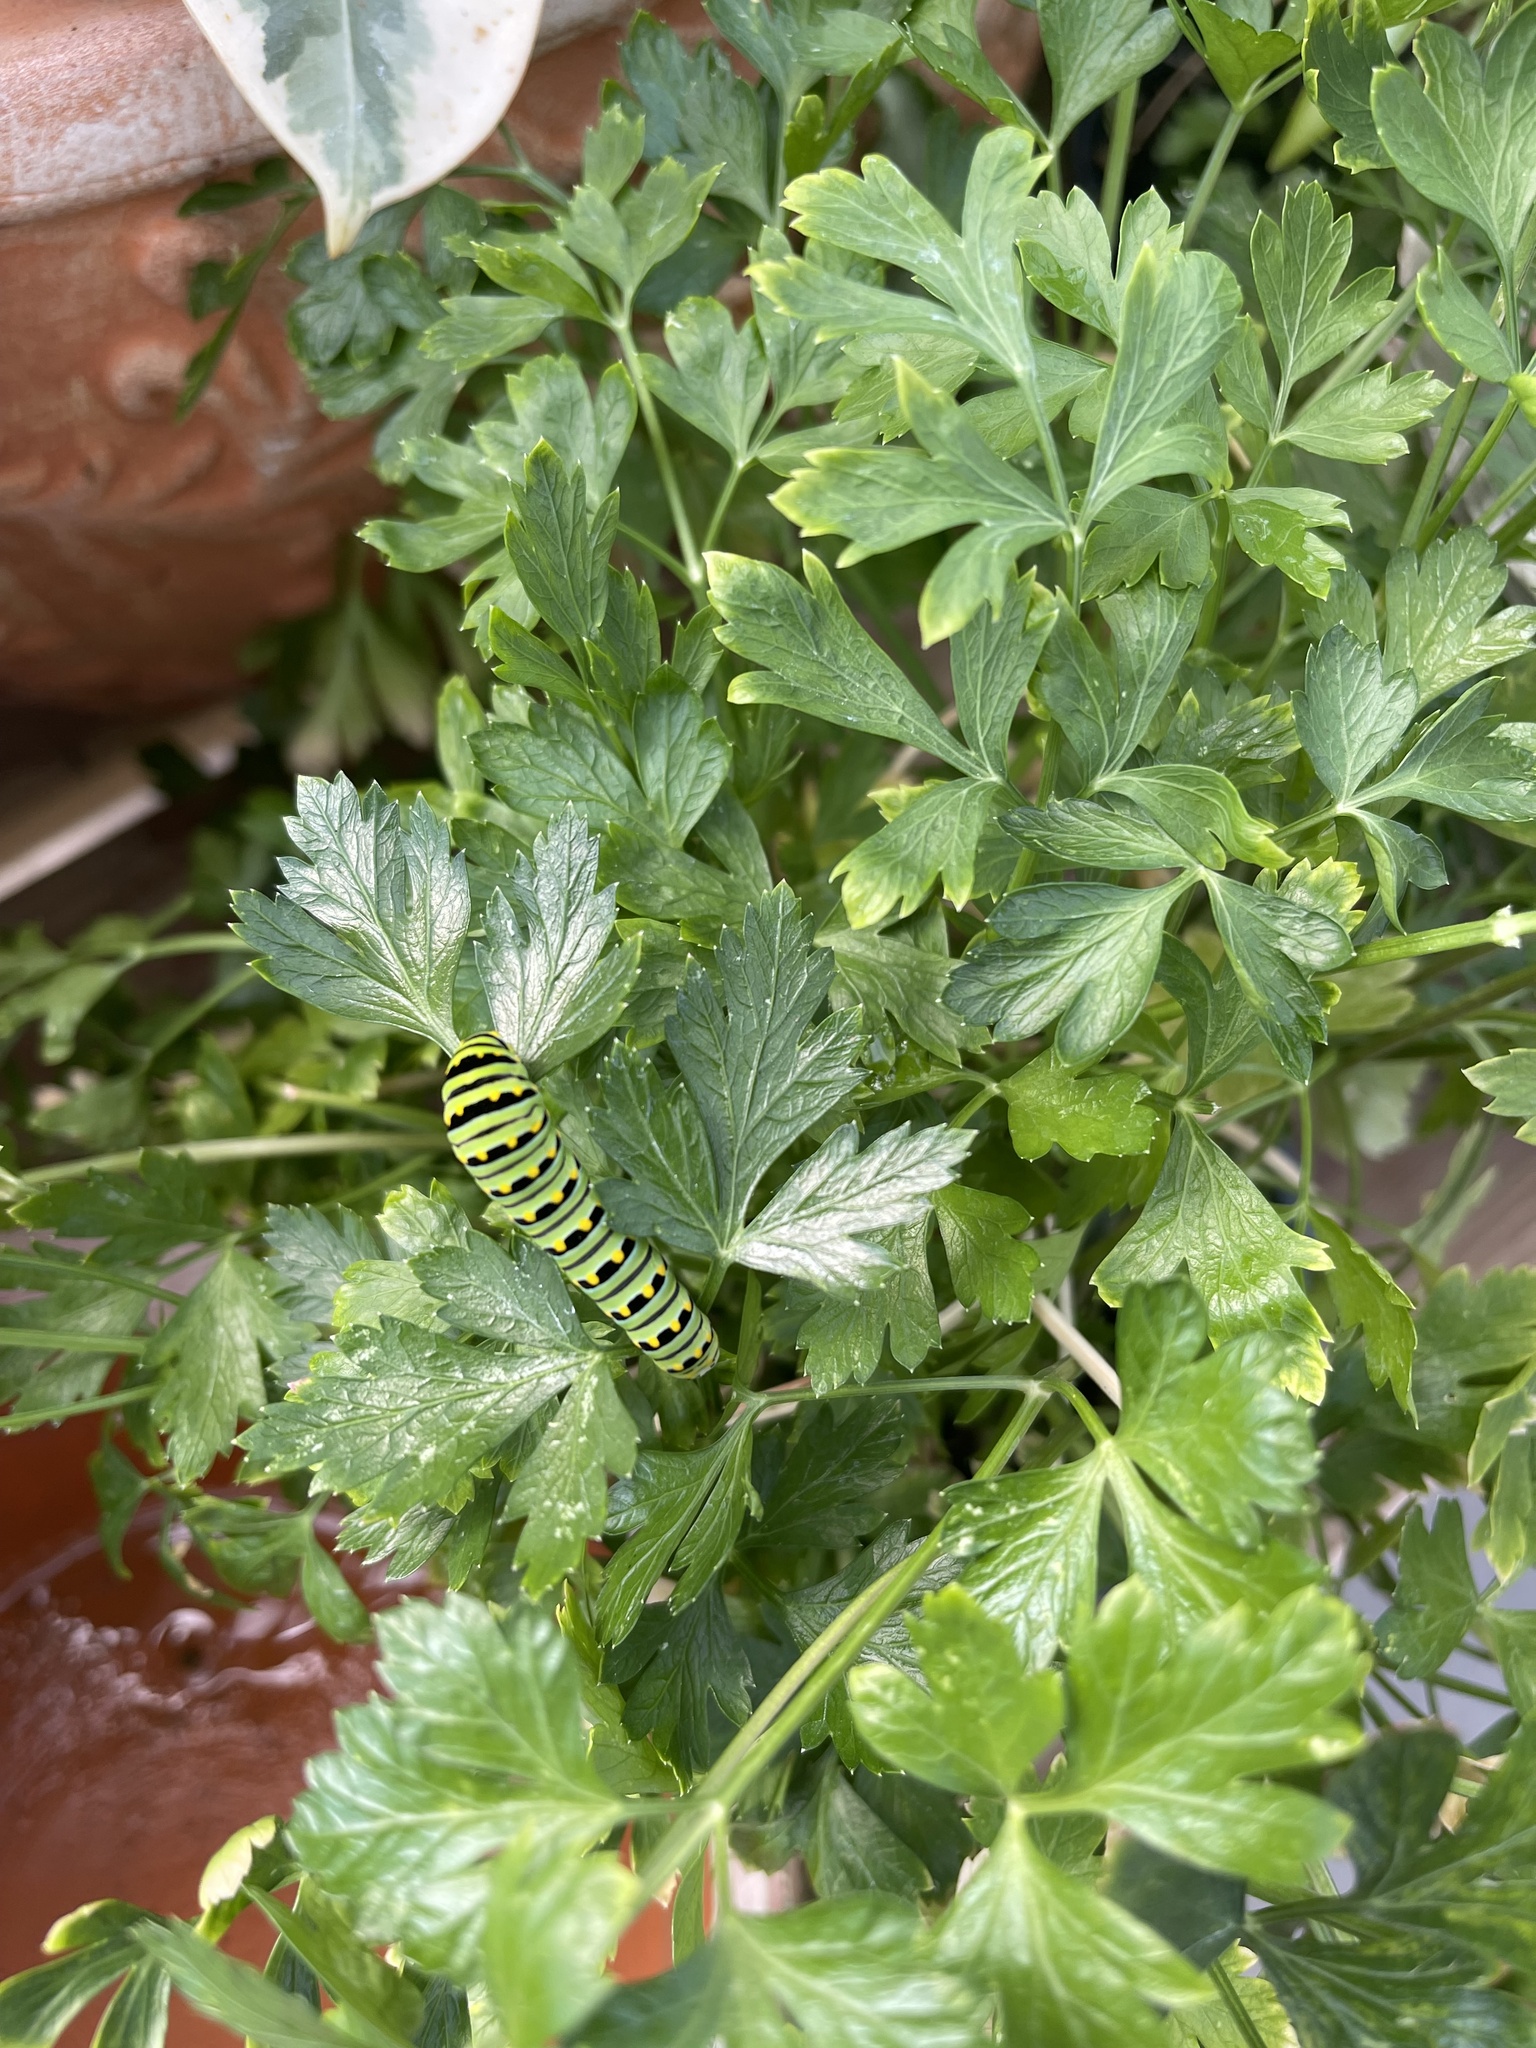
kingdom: Animalia
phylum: Arthropoda
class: Insecta
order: Lepidoptera
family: Papilionidae
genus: Papilio
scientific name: Papilio polyxenes
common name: Black swallowtail
